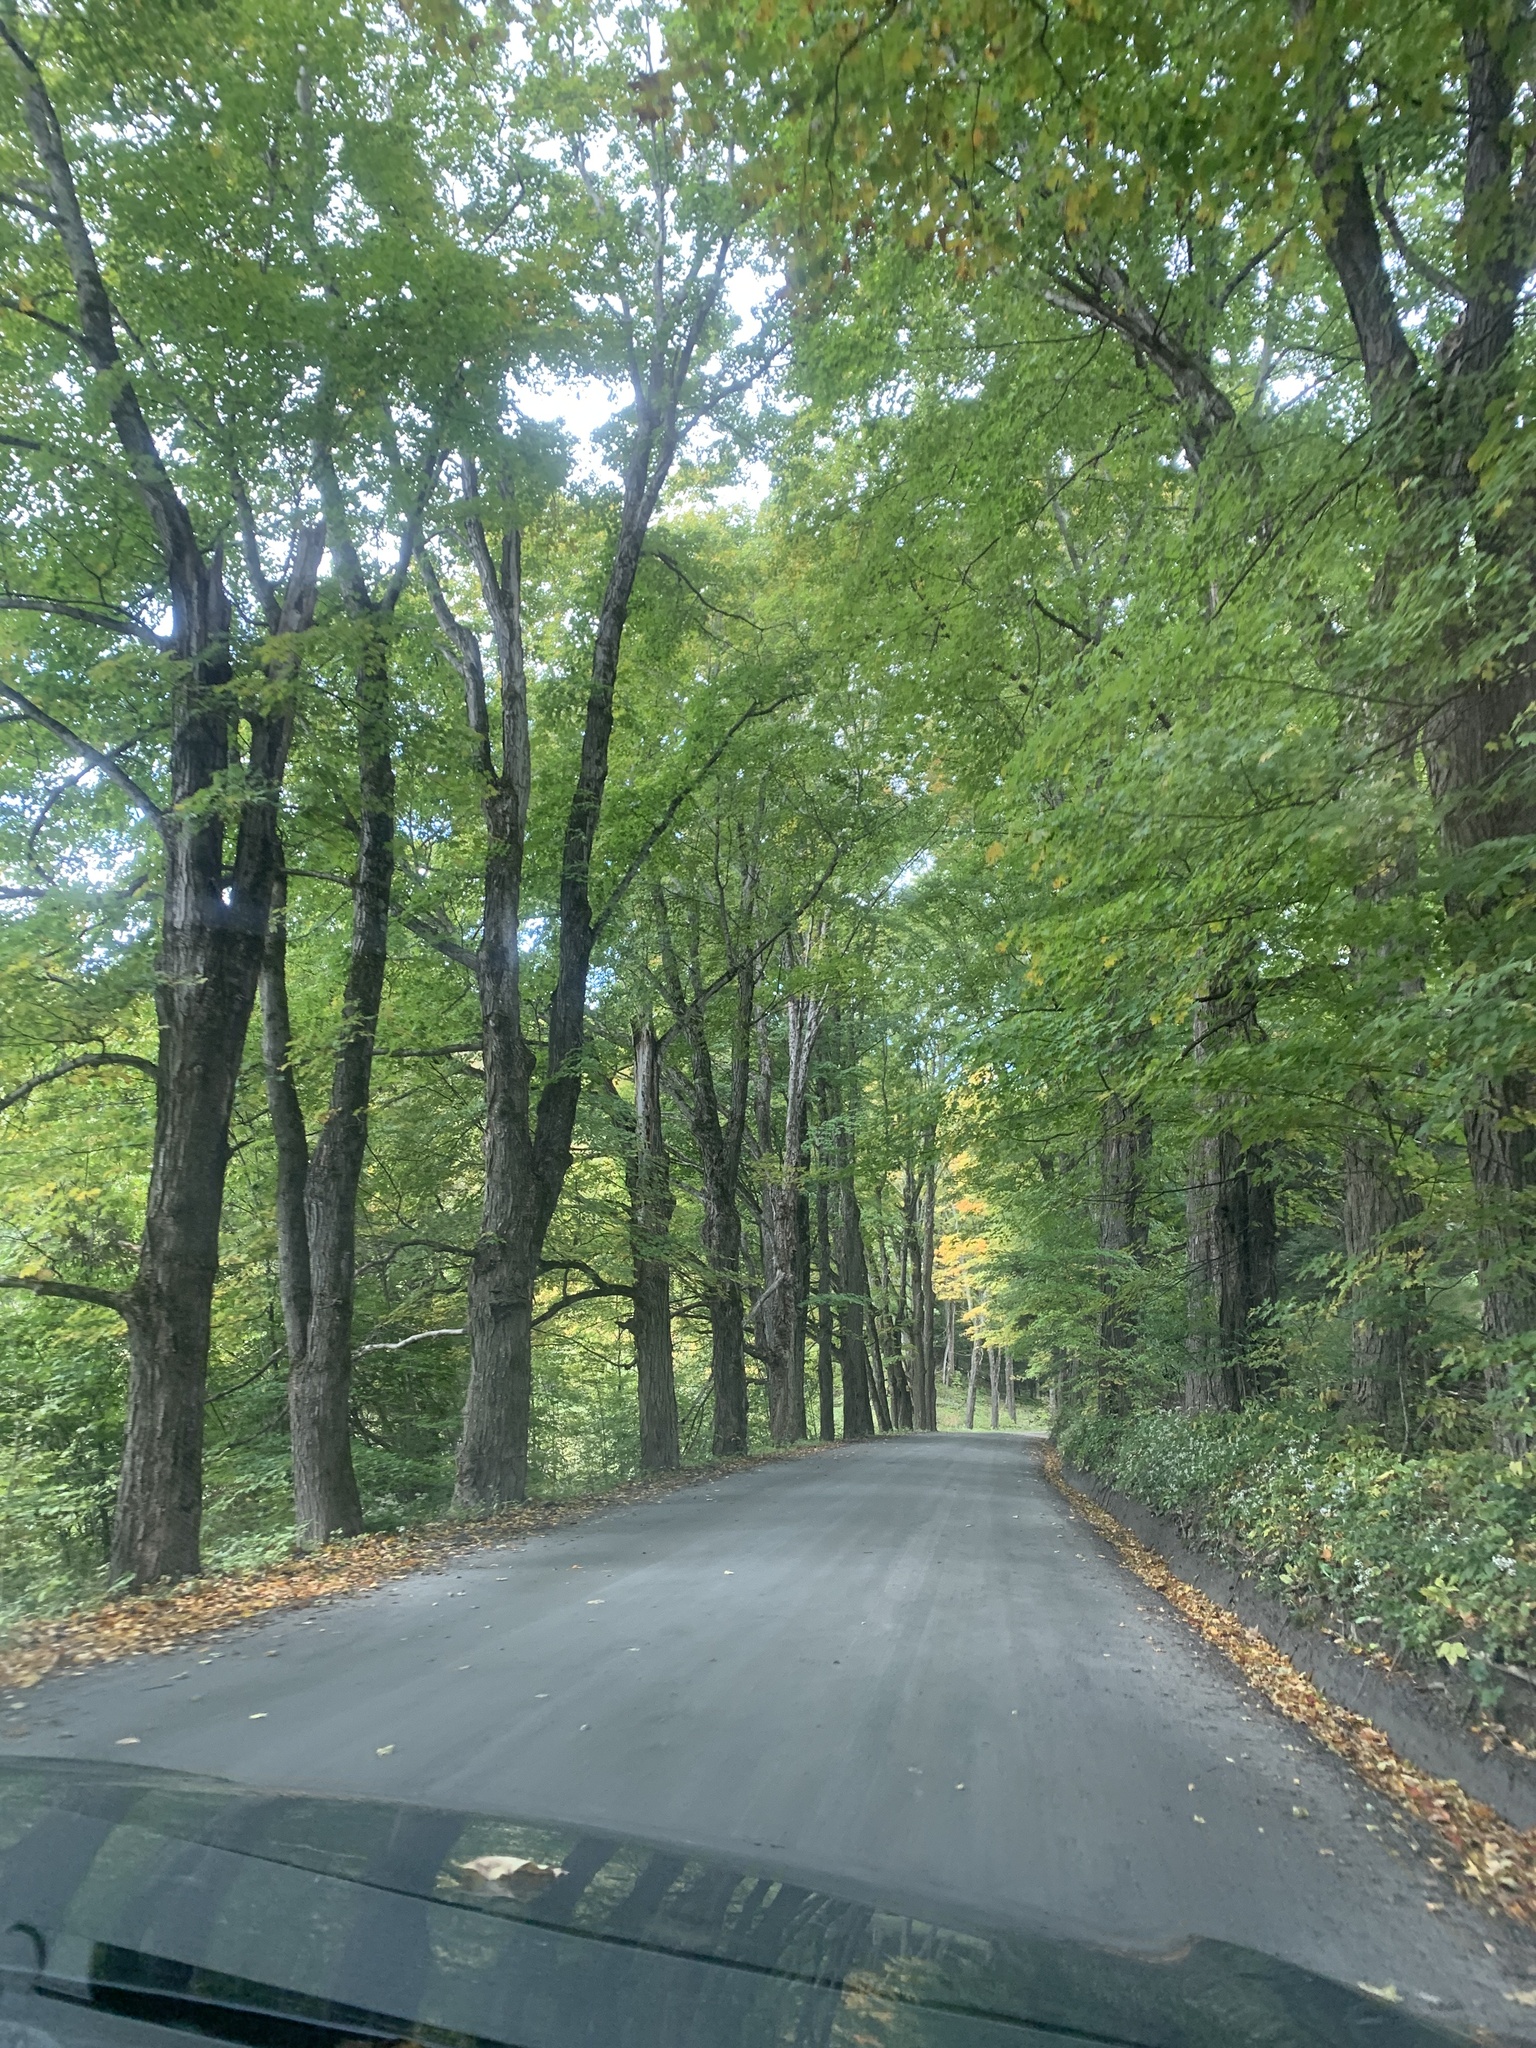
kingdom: Plantae
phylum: Tracheophyta
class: Magnoliopsida
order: Sapindales
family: Sapindaceae
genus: Acer
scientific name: Acer saccharum
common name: Sugar maple
